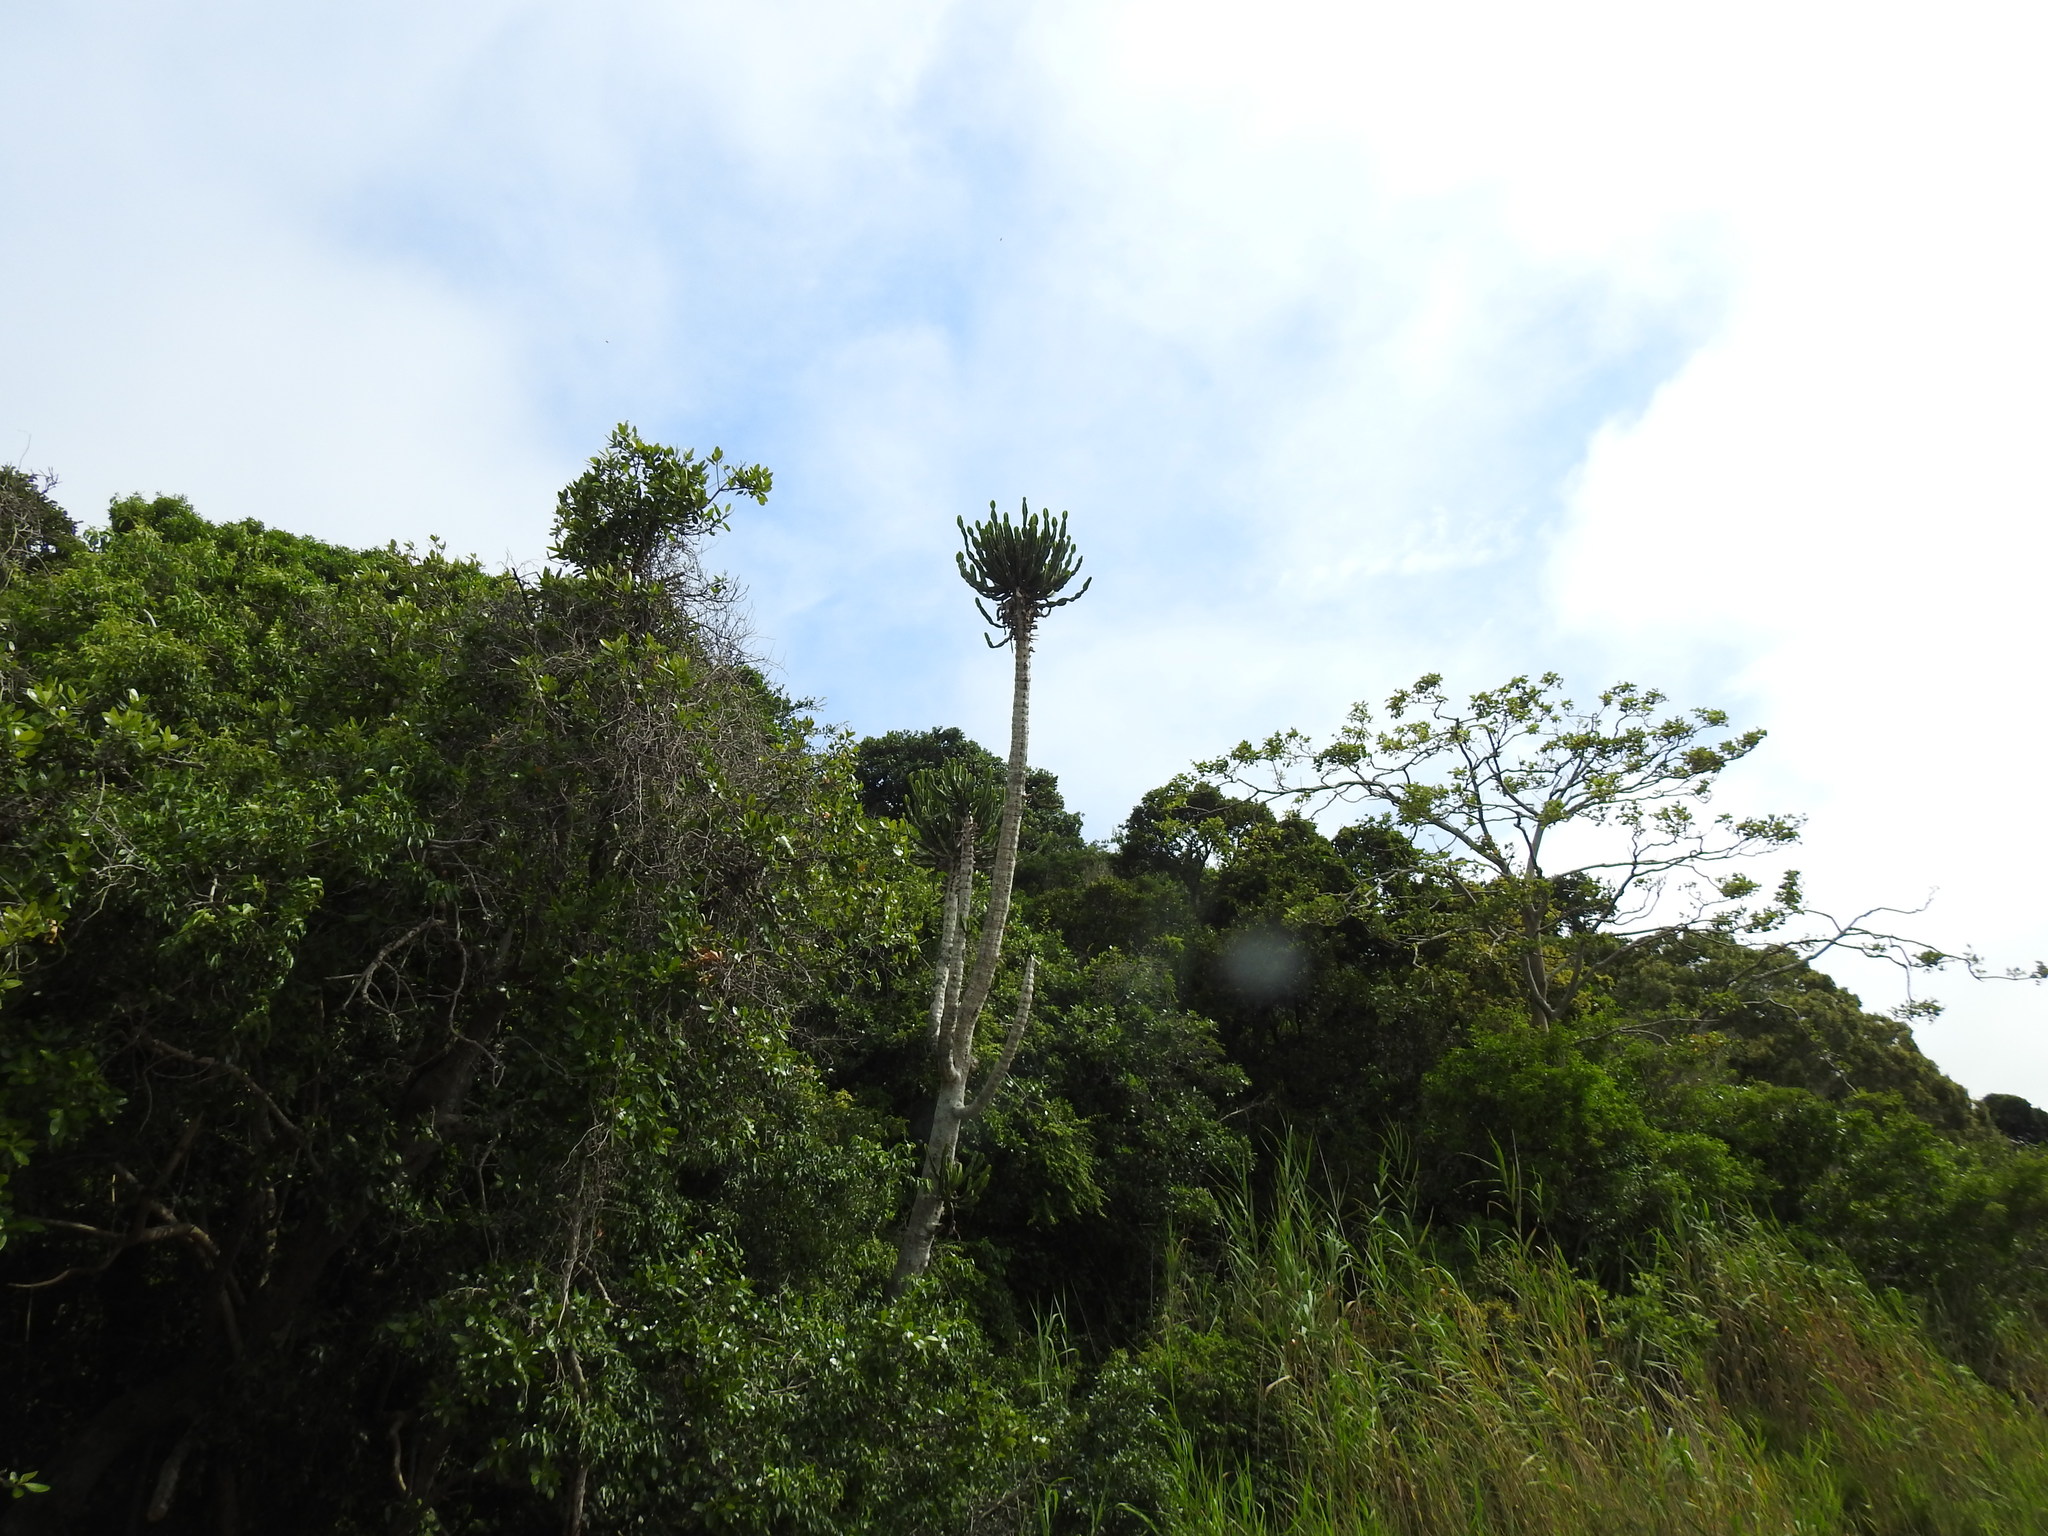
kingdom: Plantae
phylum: Tracheophyta
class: Magnoliopsida
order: Malpighiales
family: Euphorbiaceae
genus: Euphorbia
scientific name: Euphorbia triangularis
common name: Chandelier tree
